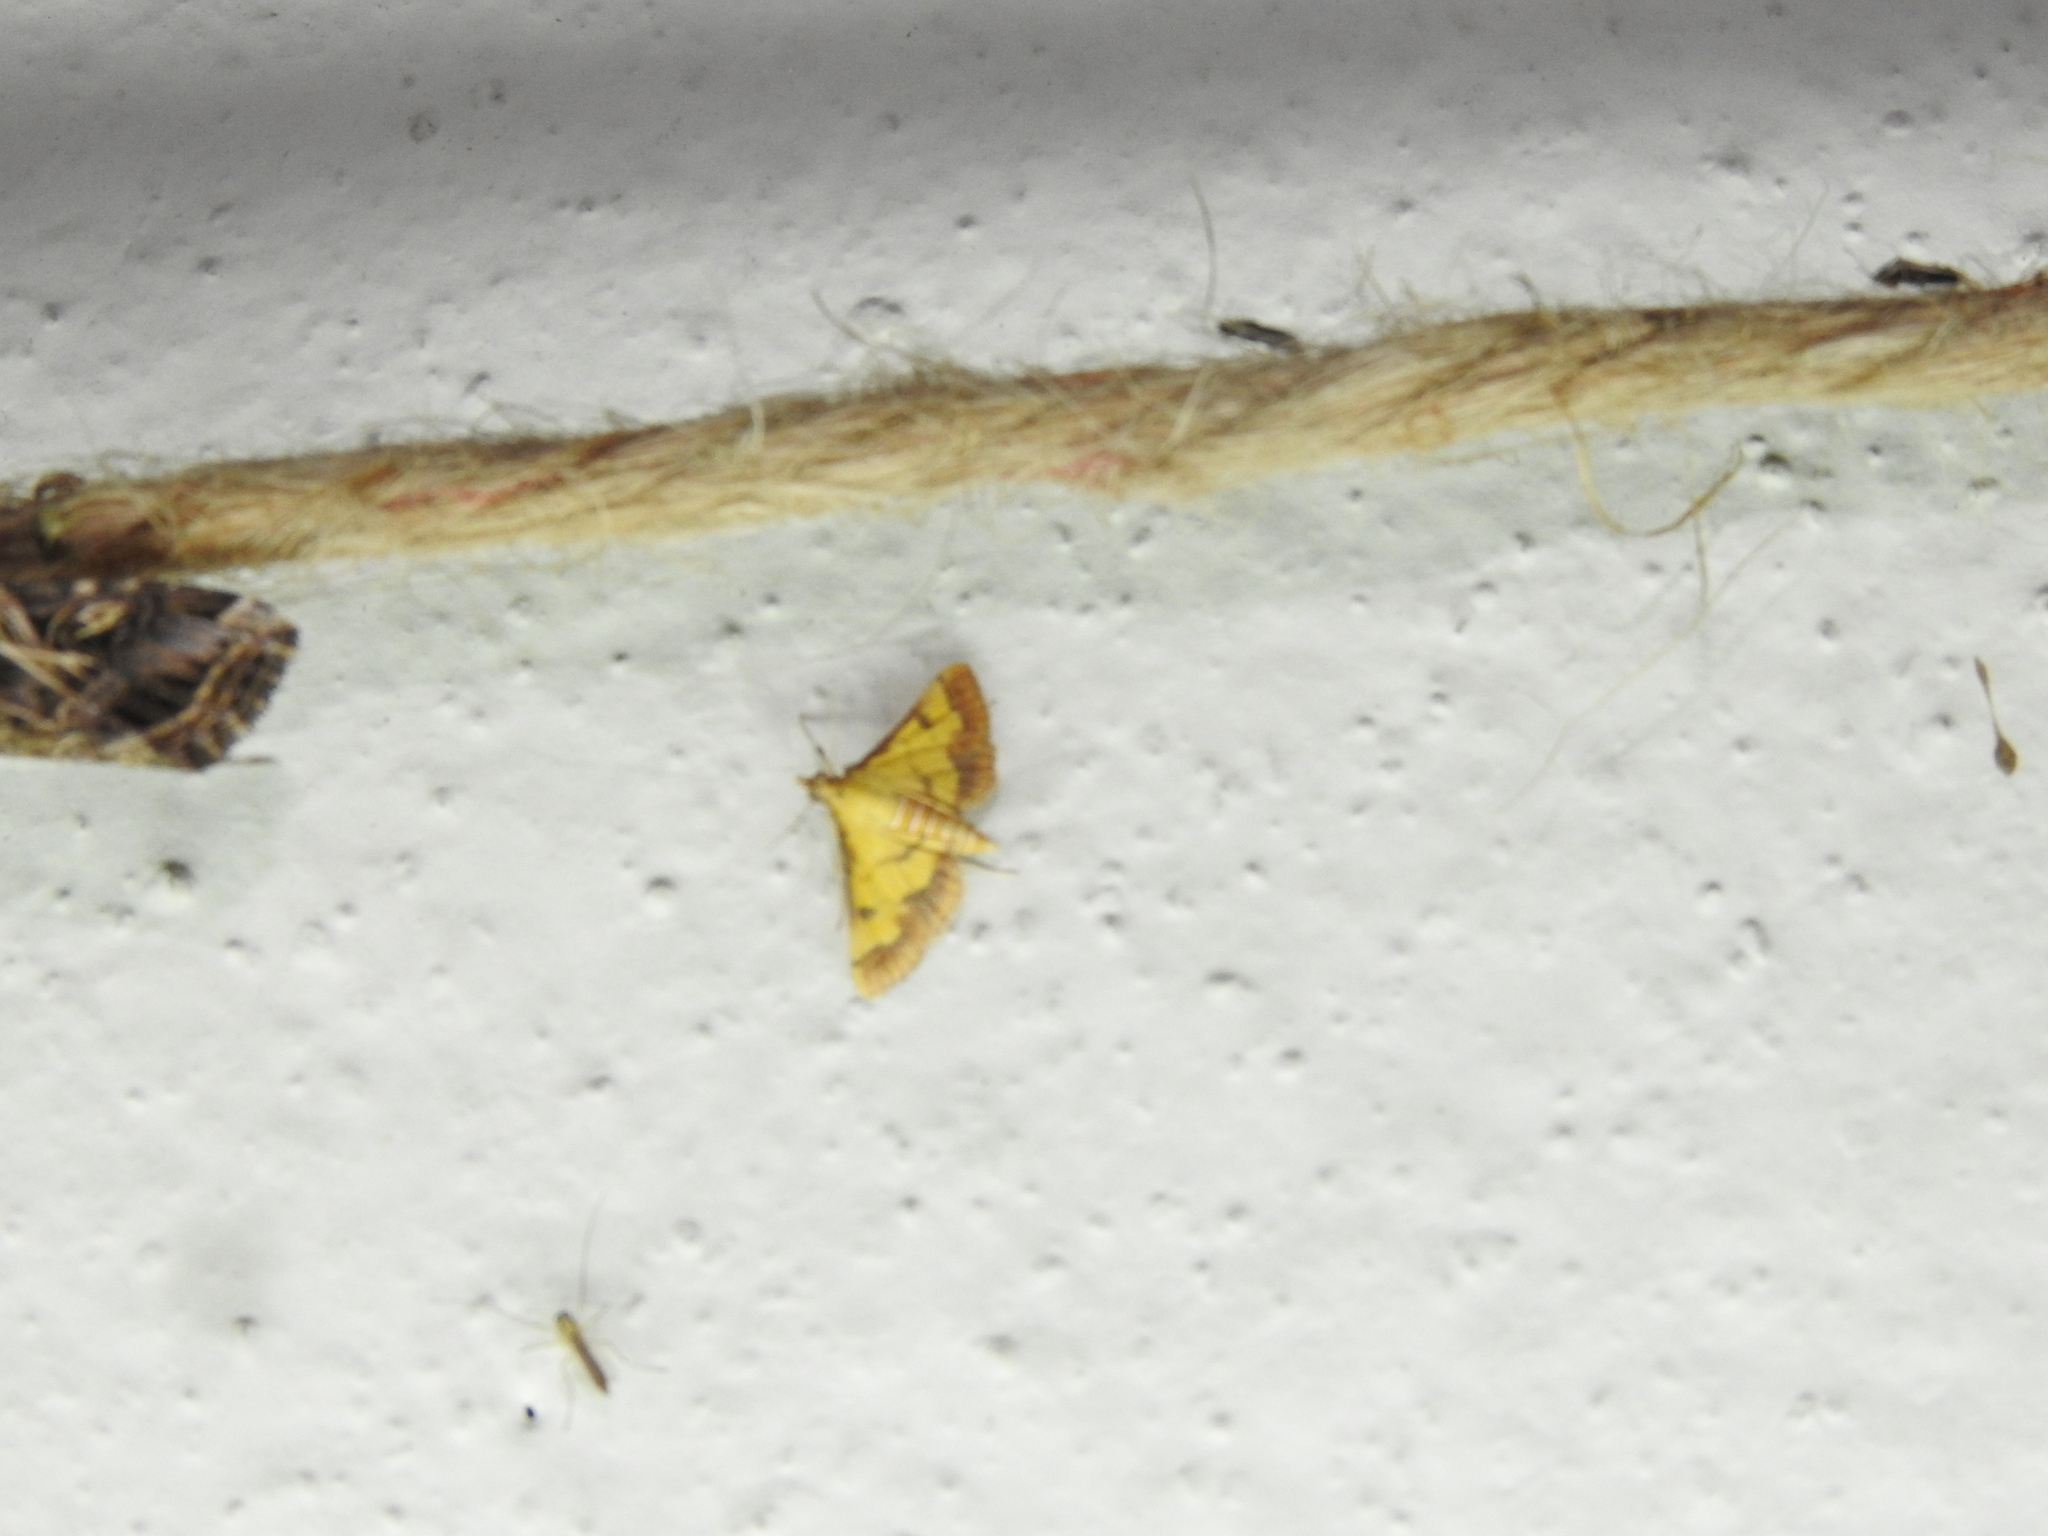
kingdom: Animalia
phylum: Arthropoda
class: Insecta
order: Lepidoptera
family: Crambidae
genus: Ischnurges
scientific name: Ischnurges luteomarginalis
